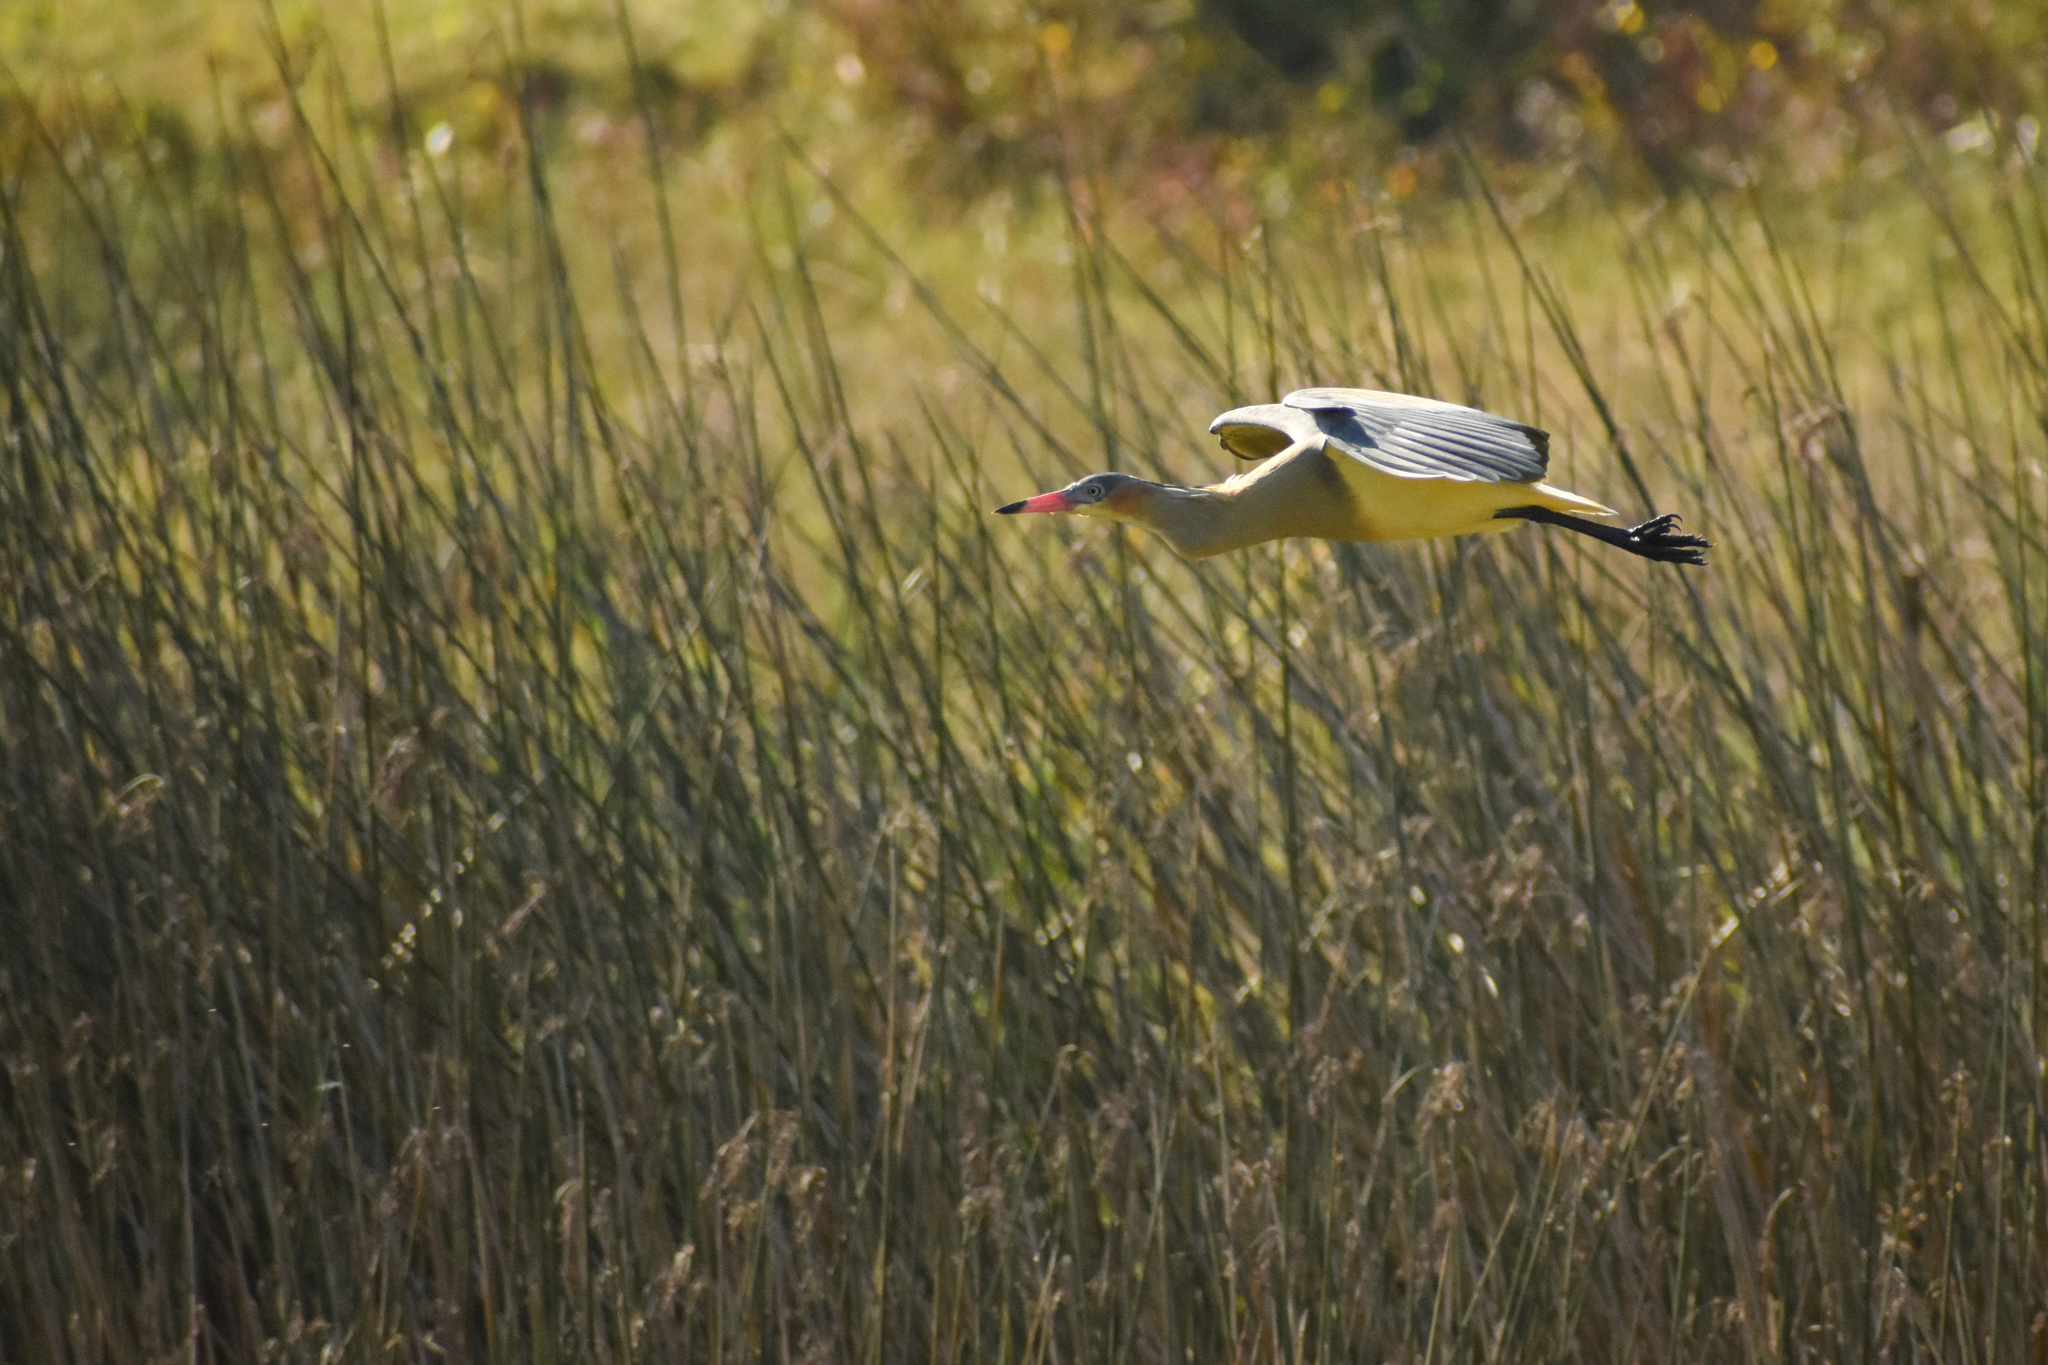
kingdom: Animalia
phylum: Chordata
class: Aves
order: Pelecaniformes
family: Ardeidae
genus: Syrigma
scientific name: Syrigma sibilatrix
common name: Whistling heron
